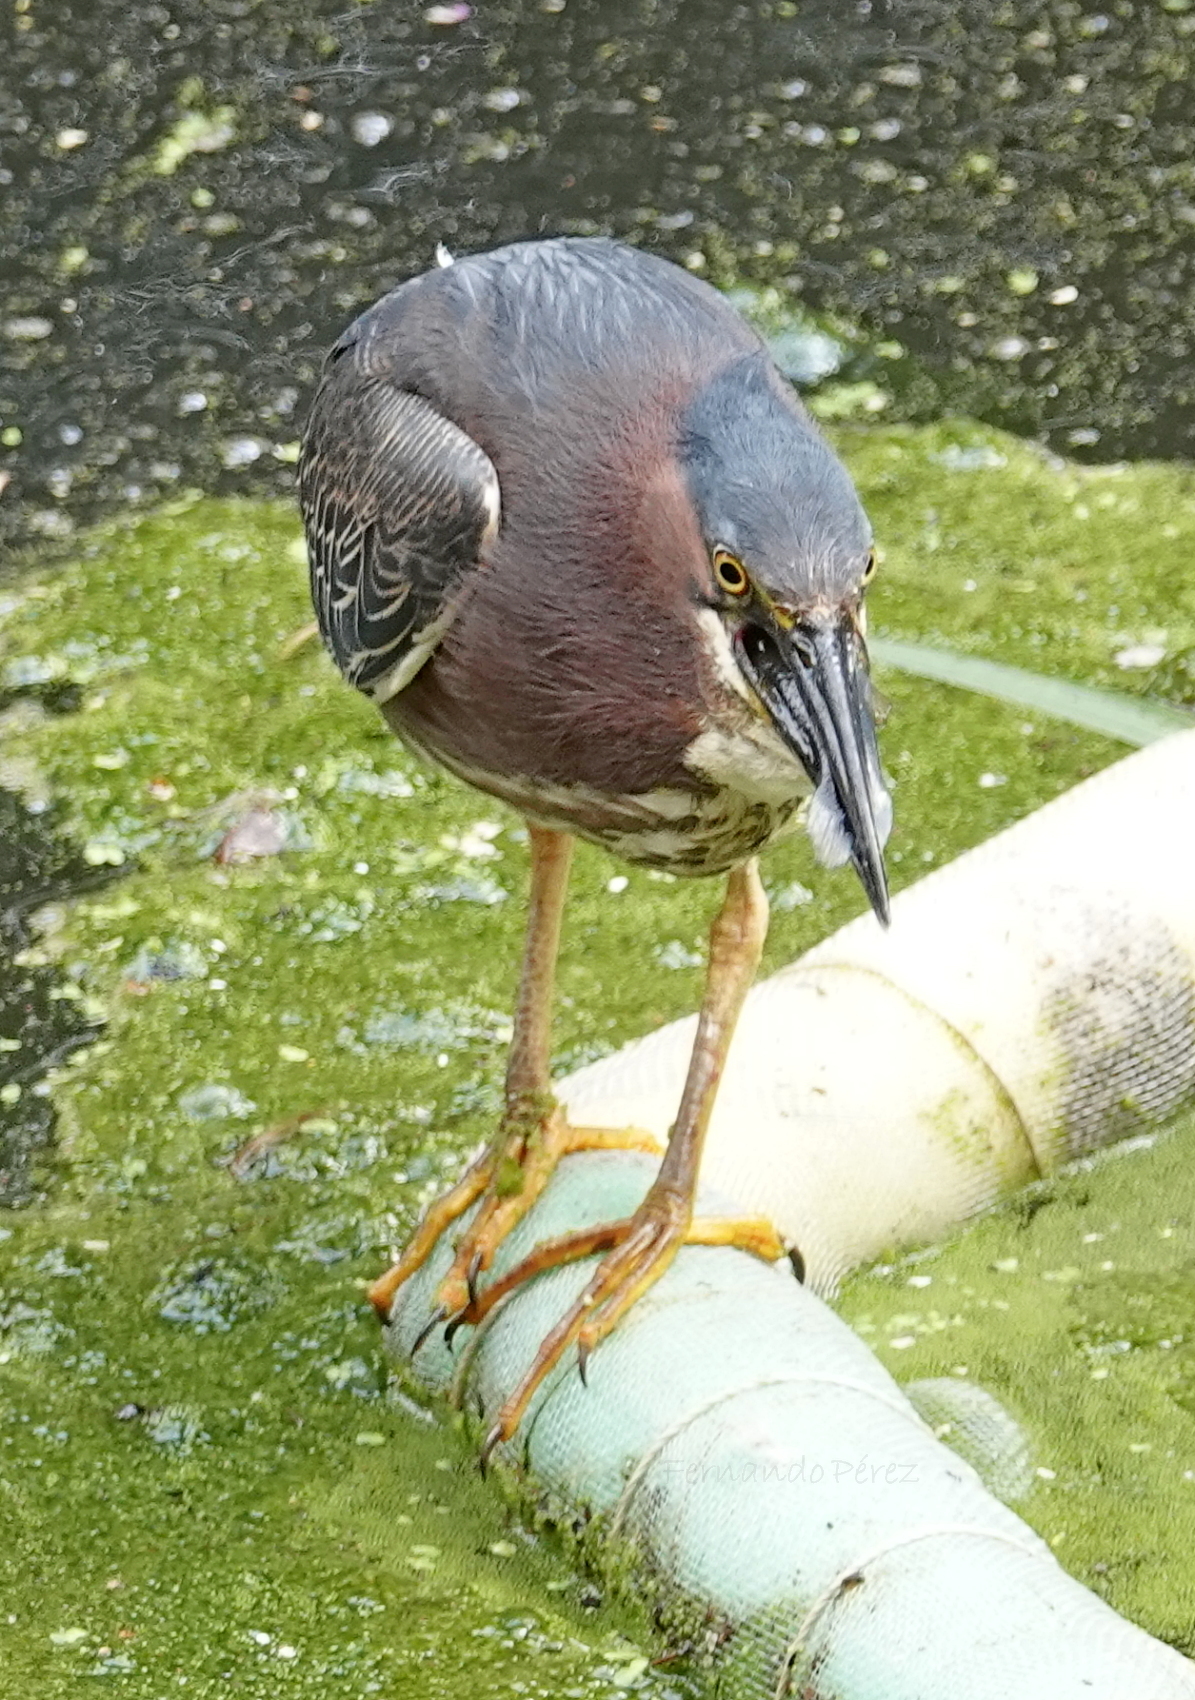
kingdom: Animalia
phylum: Chordata
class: Aves
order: Pelecaniformes
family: Ardeidae
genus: Butorides
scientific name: Butorides virescens
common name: Green heron
